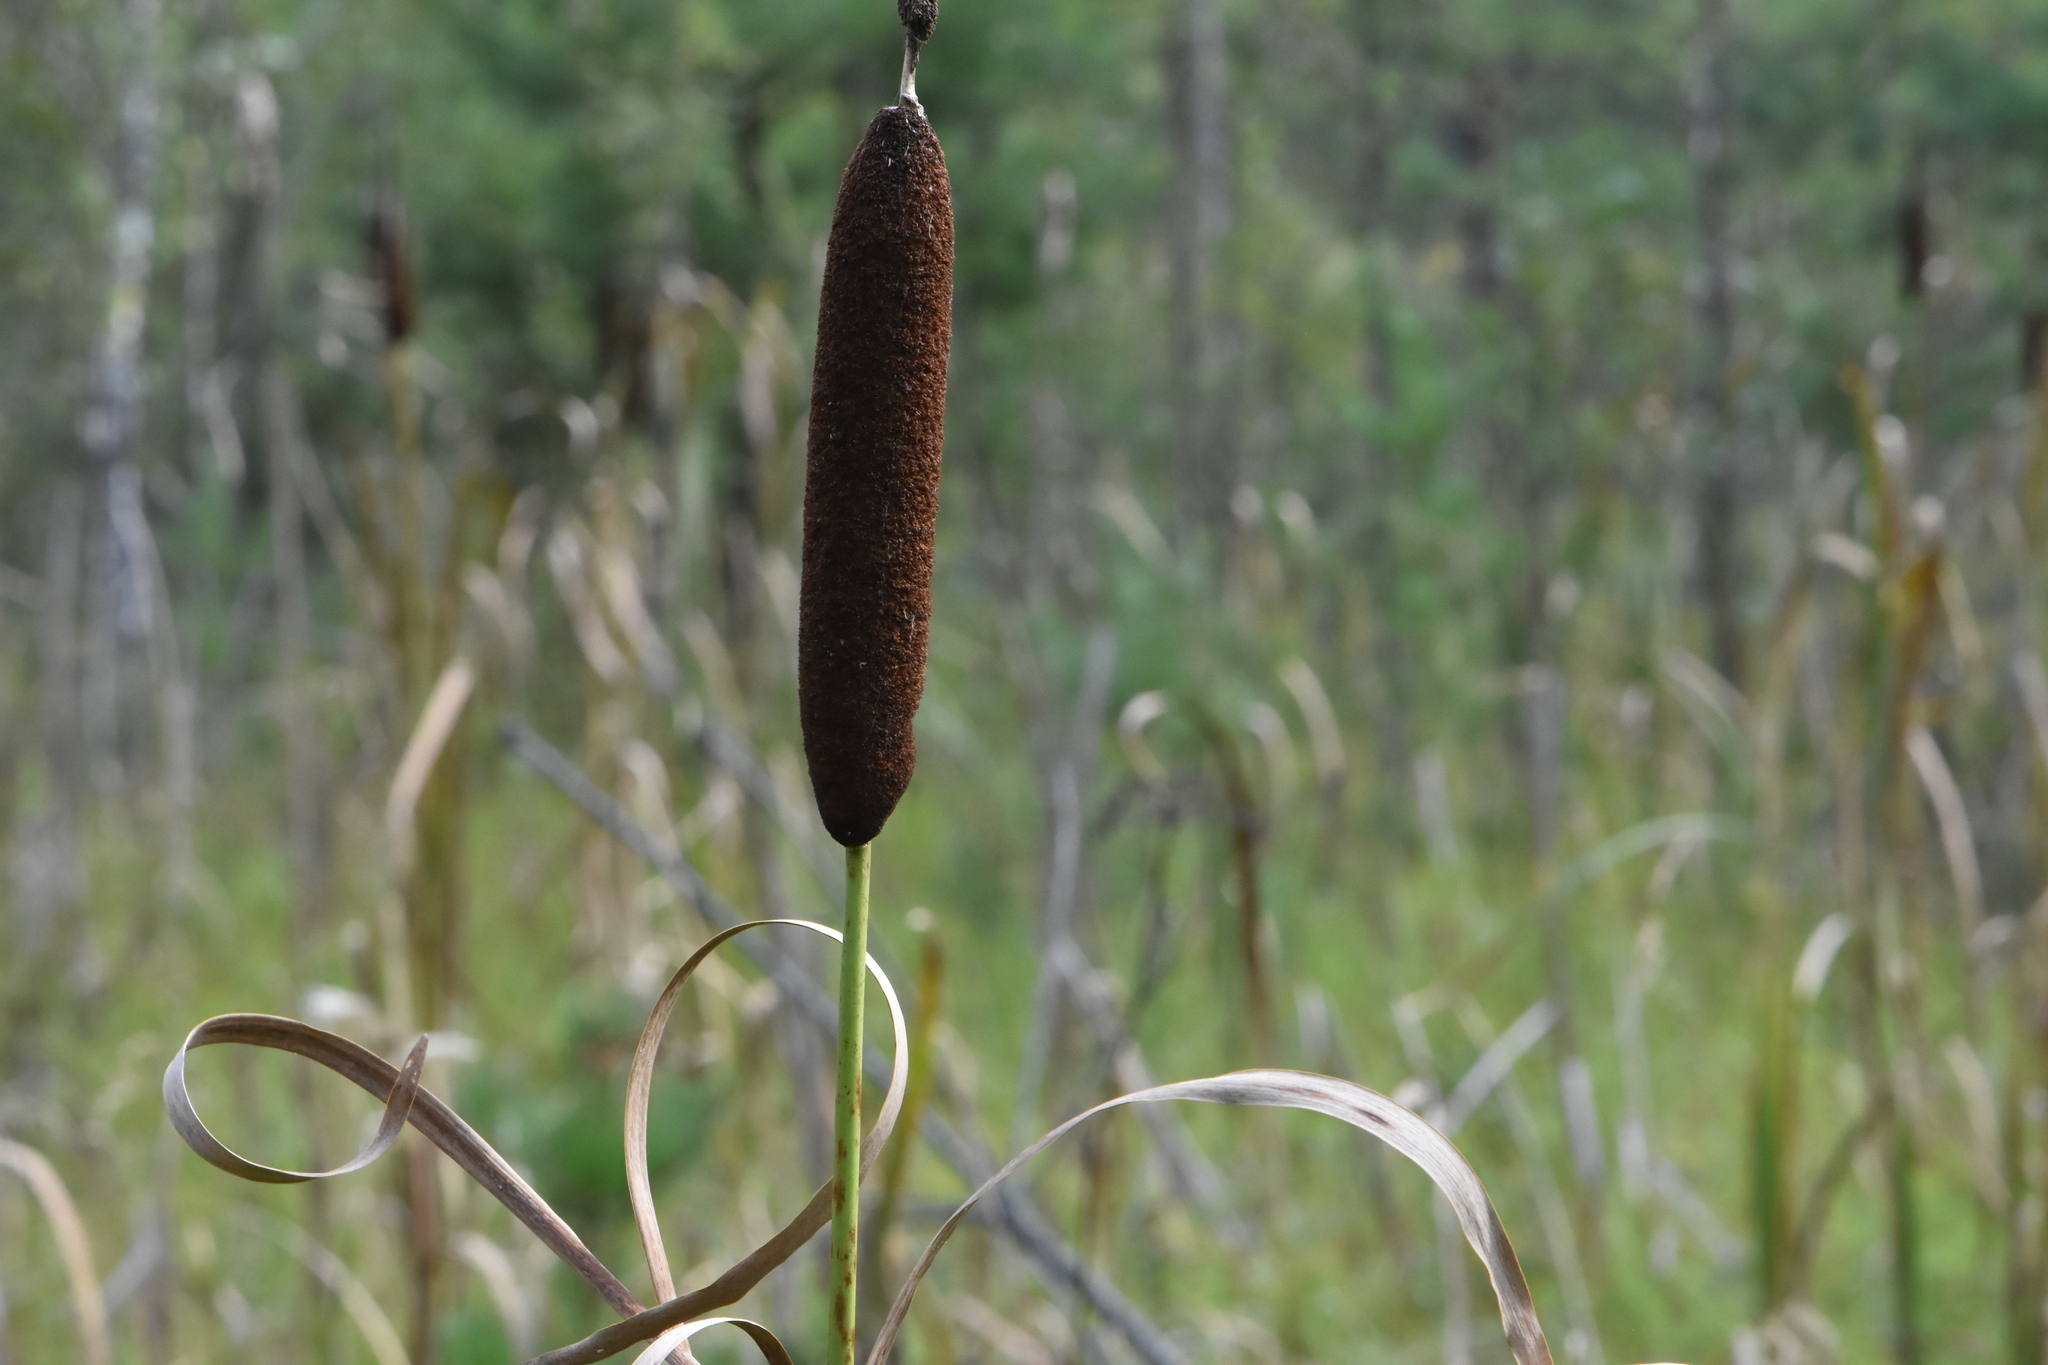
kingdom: Plantae
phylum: Tracheophyta
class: Liliopsida
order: Poales
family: Typhaceae
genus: Typha
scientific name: Typha latifolia
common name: Broadleaf cattail
